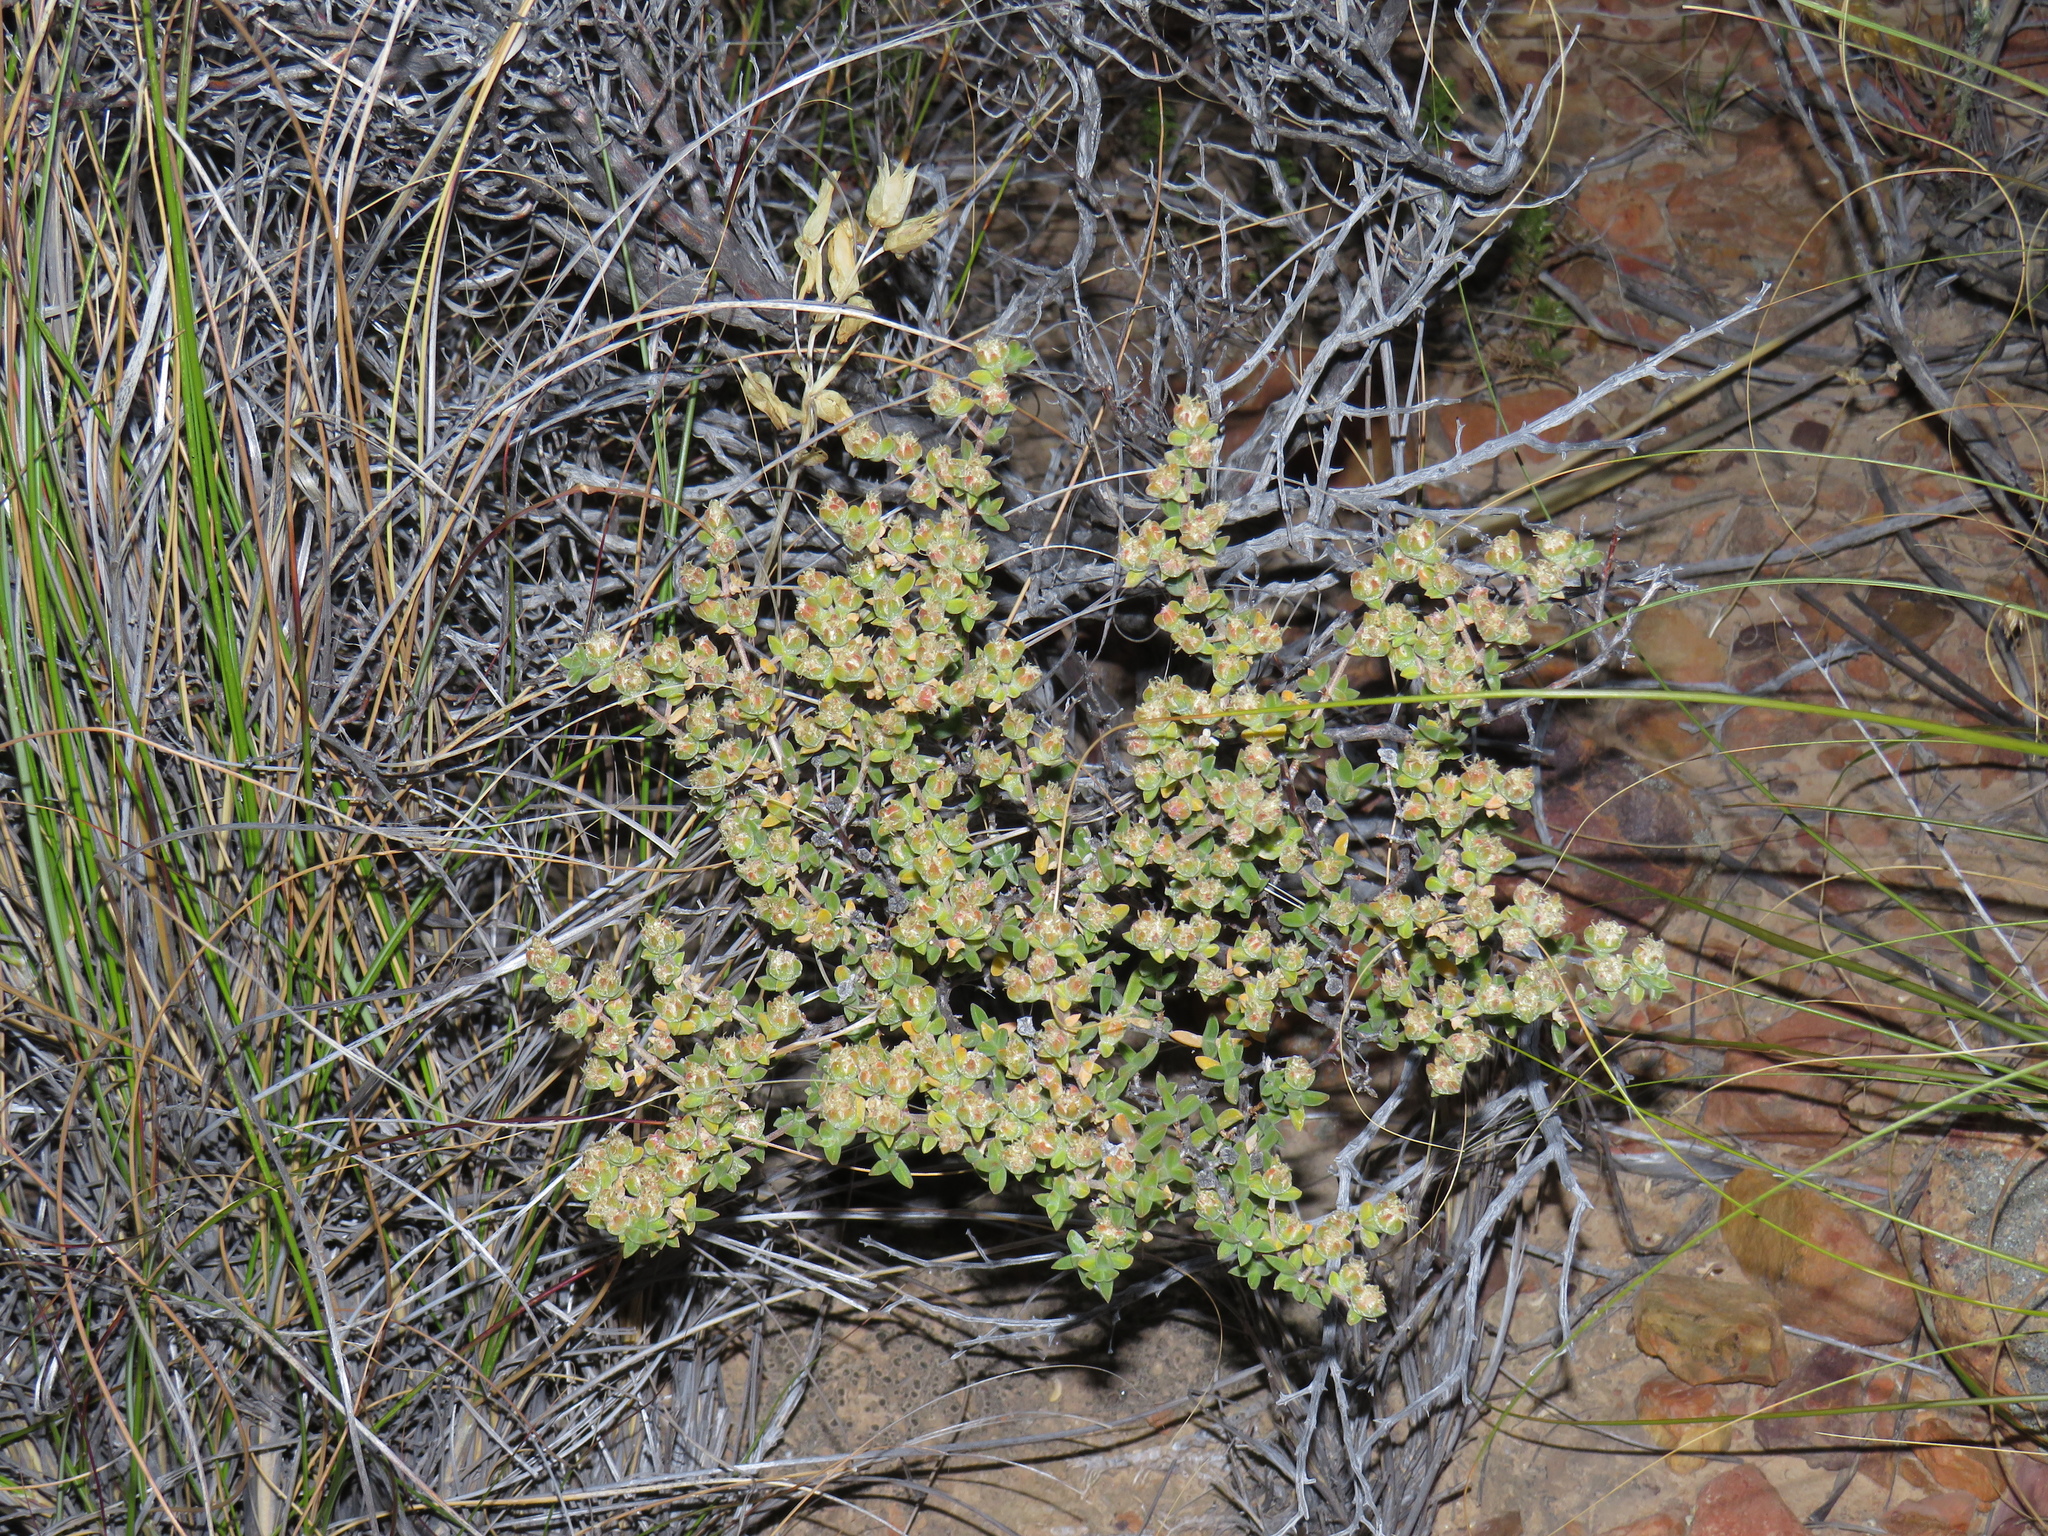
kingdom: Plantae
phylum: Tracheophyta
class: Magnoliopsida
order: Caryophyllales
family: Aizoaceae
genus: Delosperma
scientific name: Delosperma asperulum
